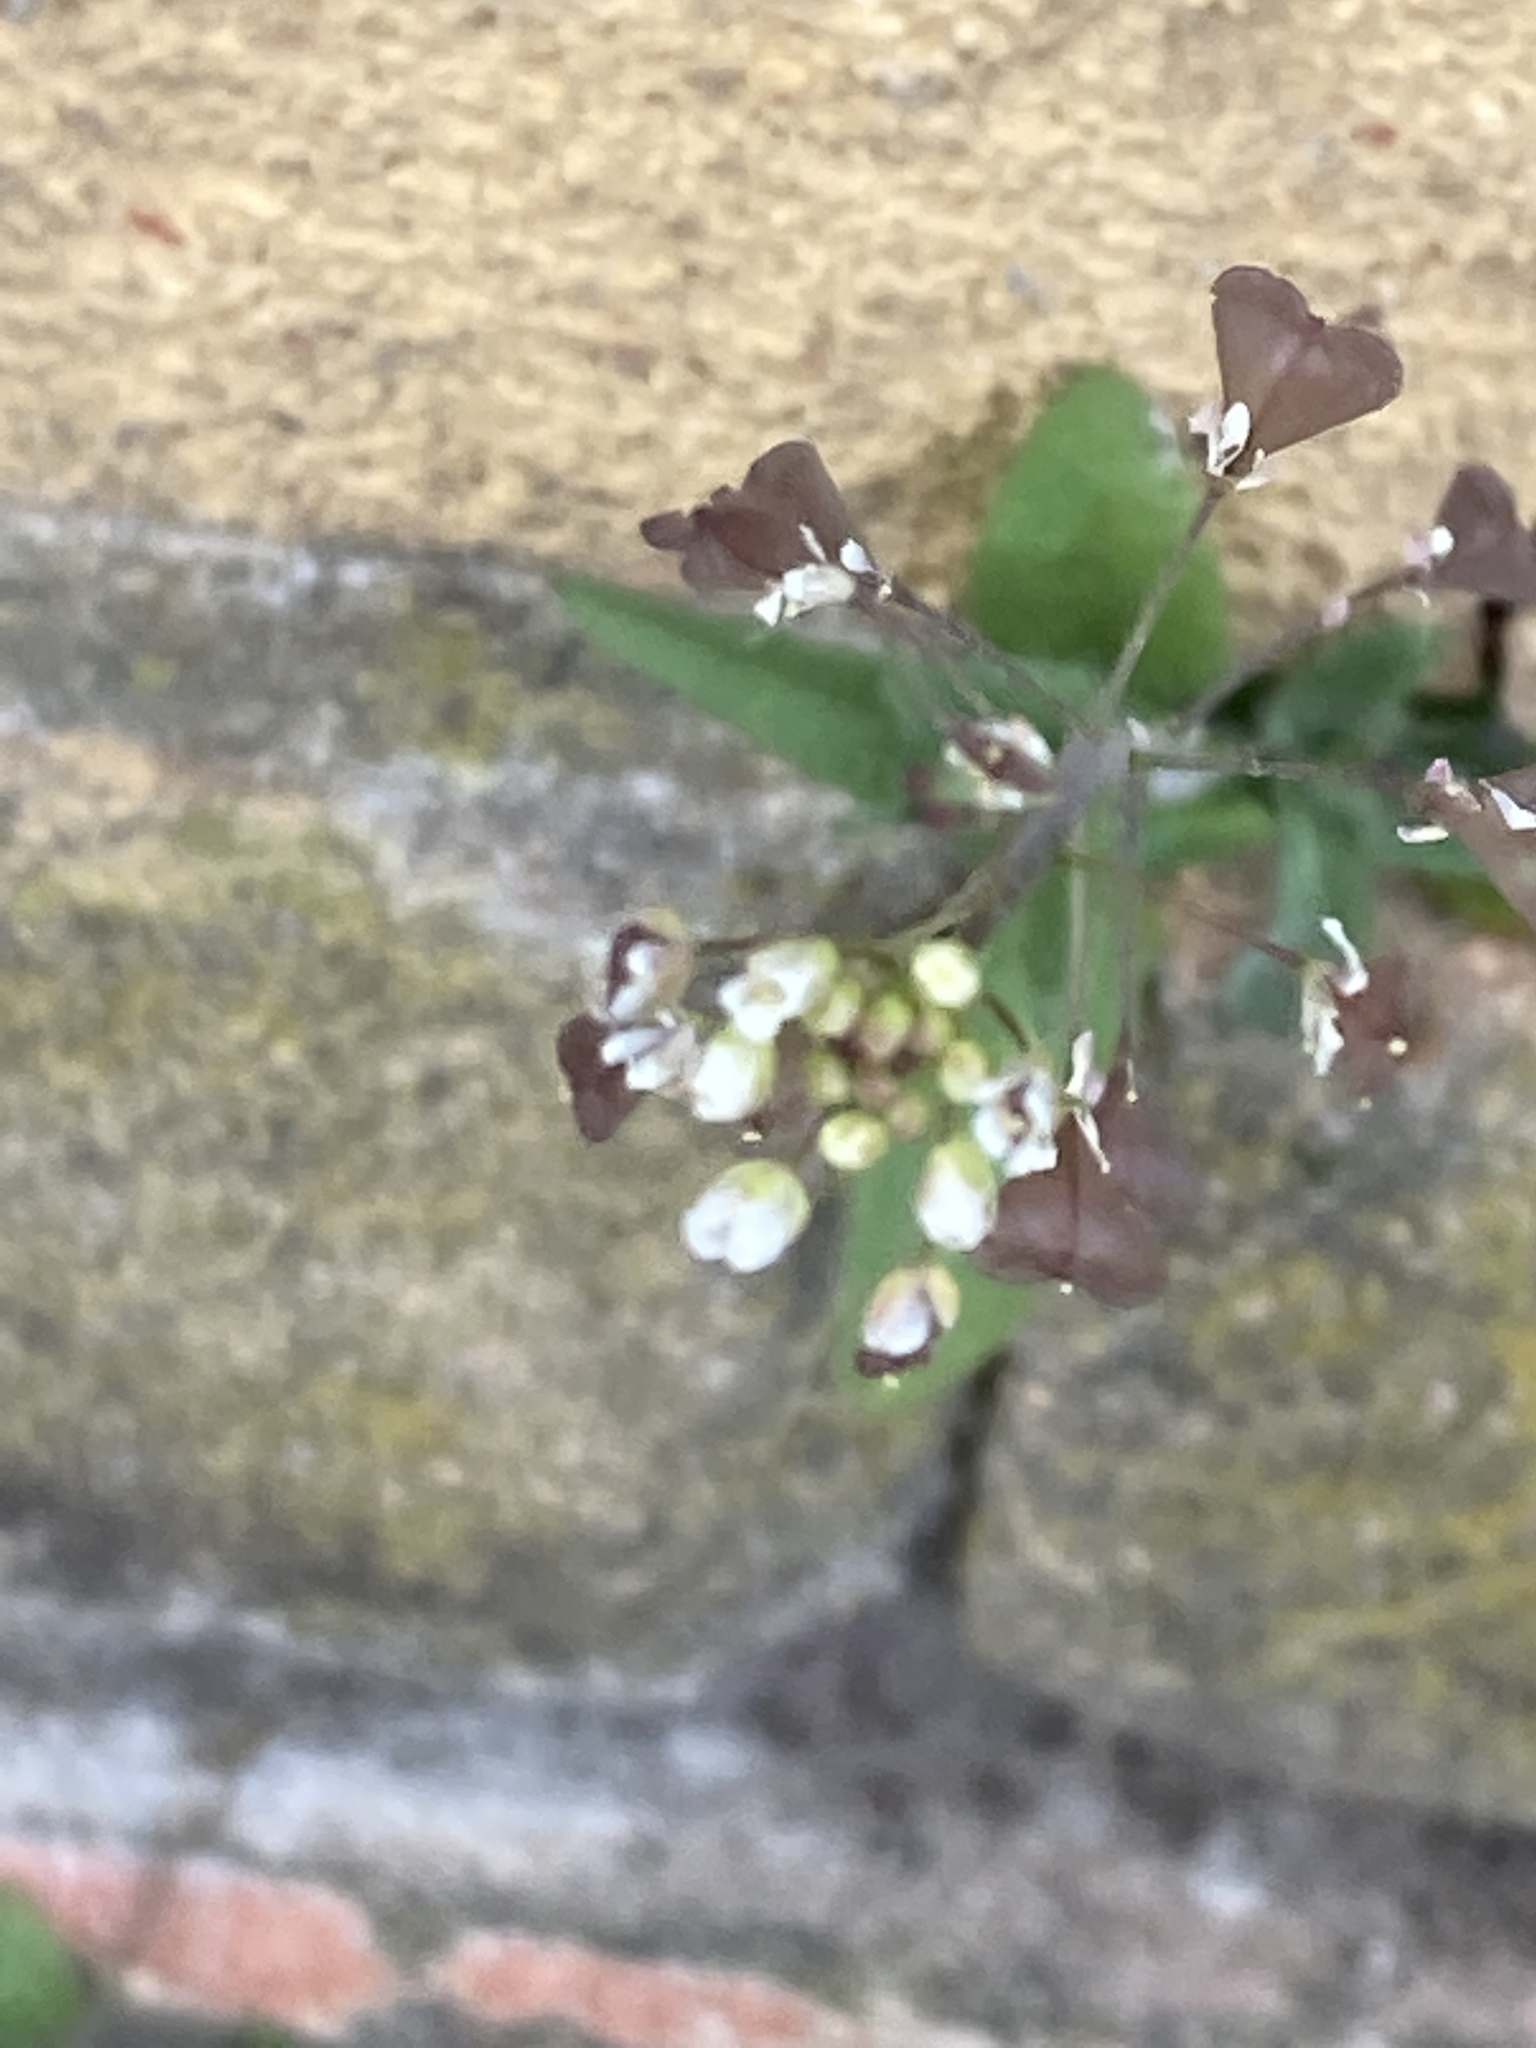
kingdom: Plantae
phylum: Tracheophyta
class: Magnoliopsida
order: Brassicales
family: Brassicaceae
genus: Capsella
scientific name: Capsella bursa-pastoris
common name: Shepherd's purse
